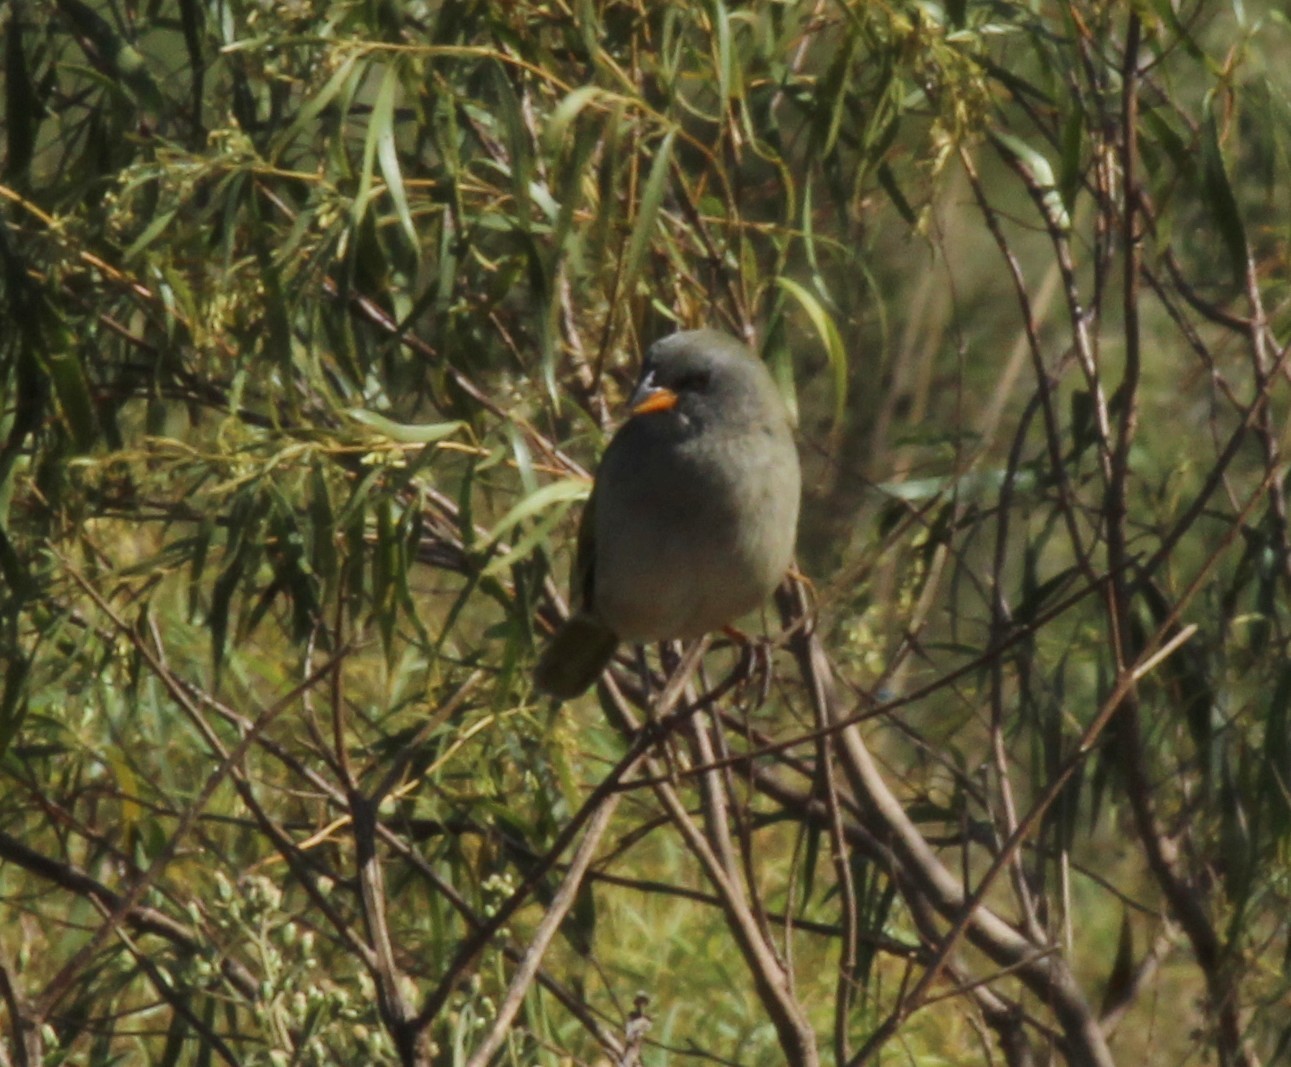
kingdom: Animalia
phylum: Chordata
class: Aves
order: Passeriformes
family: Thraupidae
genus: Embernagra
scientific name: Embernagra platensis
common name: Pampa finch
